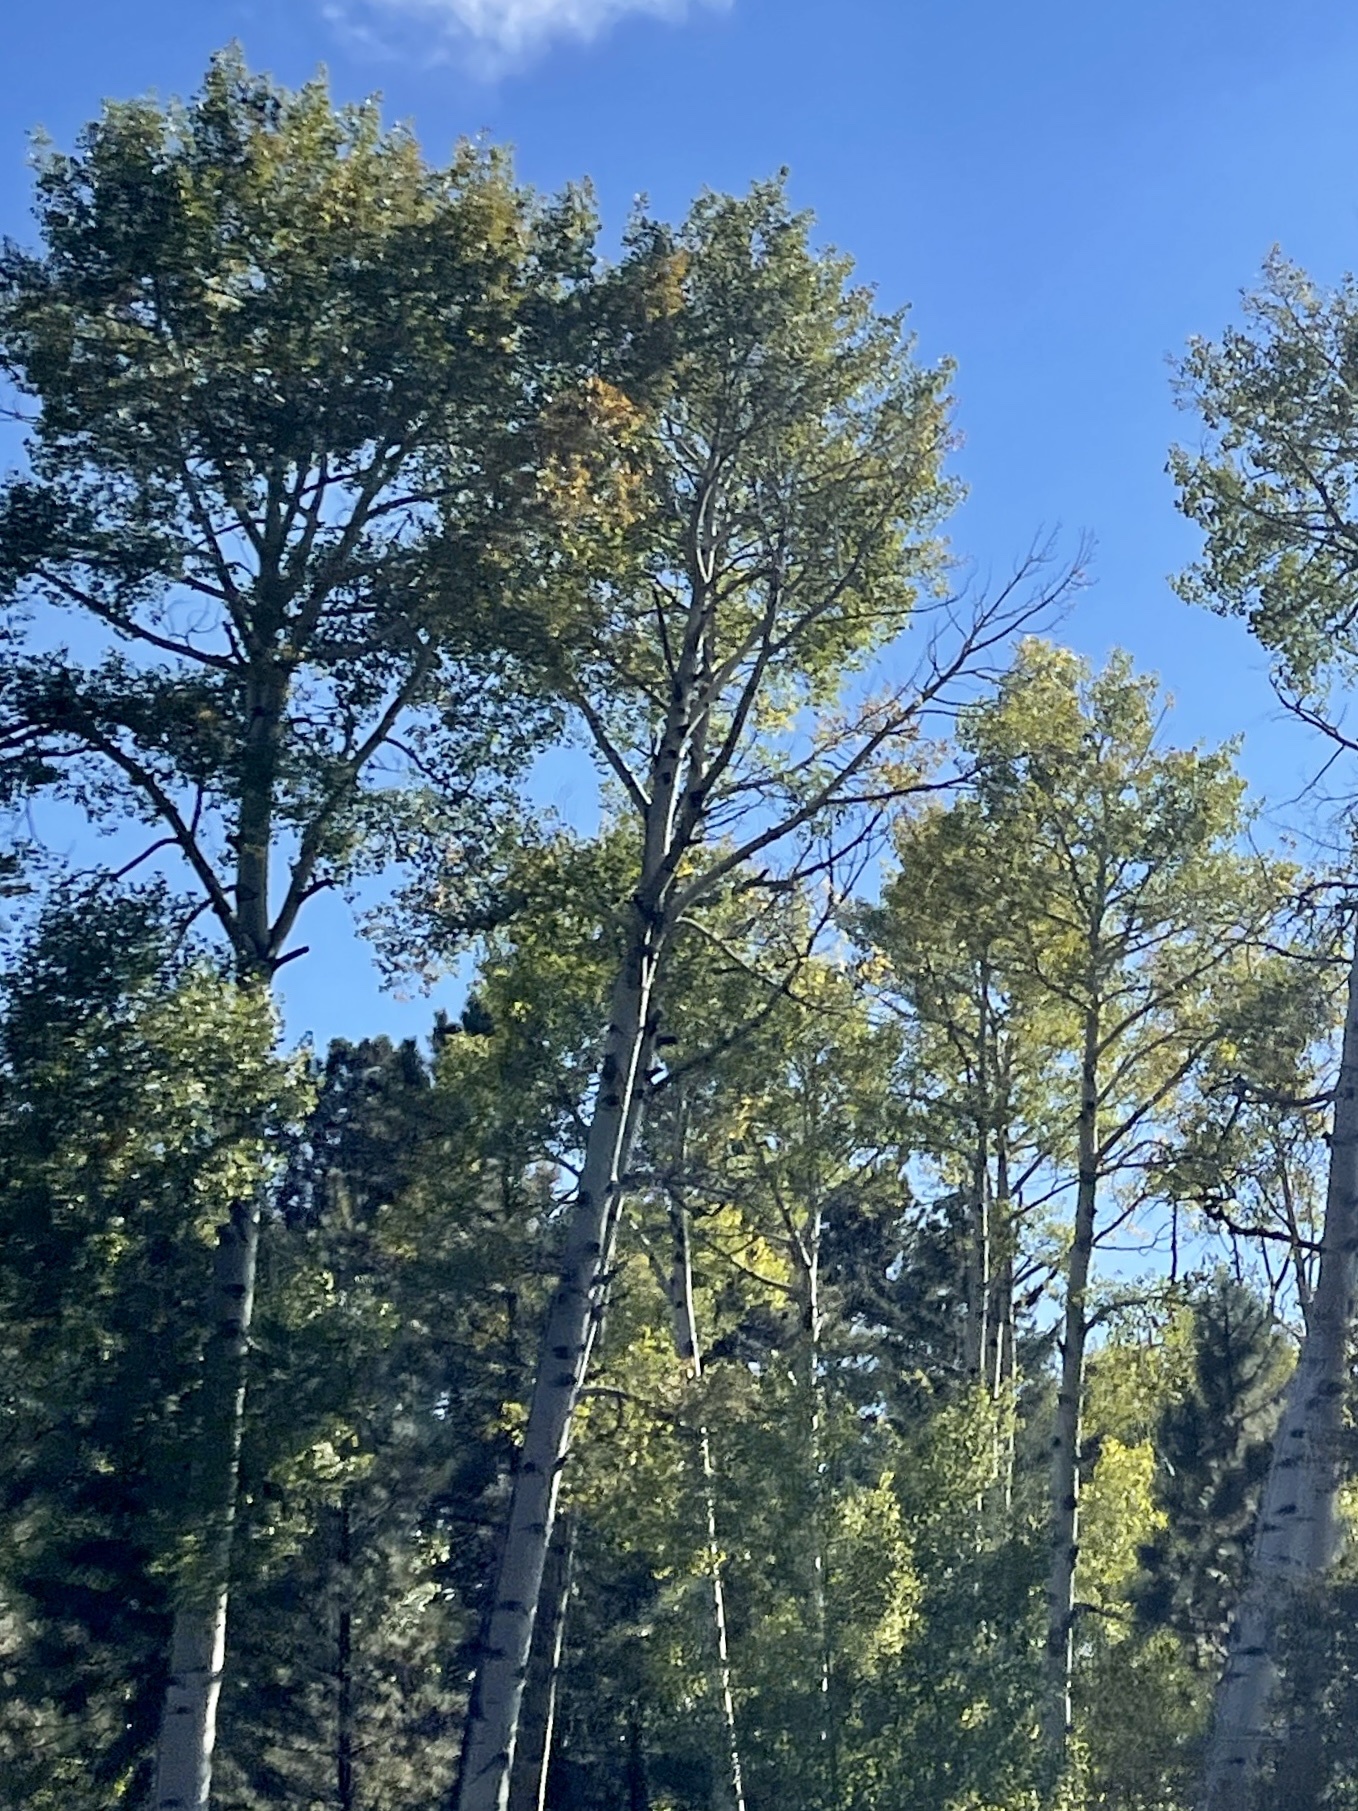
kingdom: Plantae
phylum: Tracheophyta
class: Magnoliopsida
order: Malpighiales
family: Salicaceae
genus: Populus
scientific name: Populus tremuloides
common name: Quaking aspen
